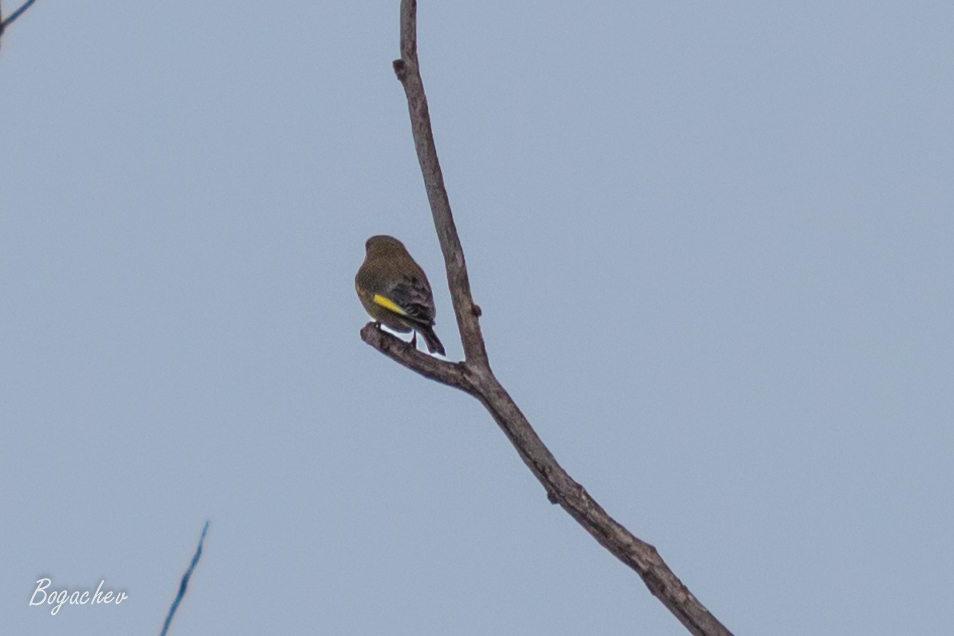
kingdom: Plantae
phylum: Tracheophyta
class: Liliopsida
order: Poales
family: Poaceae
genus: Chloris
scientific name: Chloris chloris
